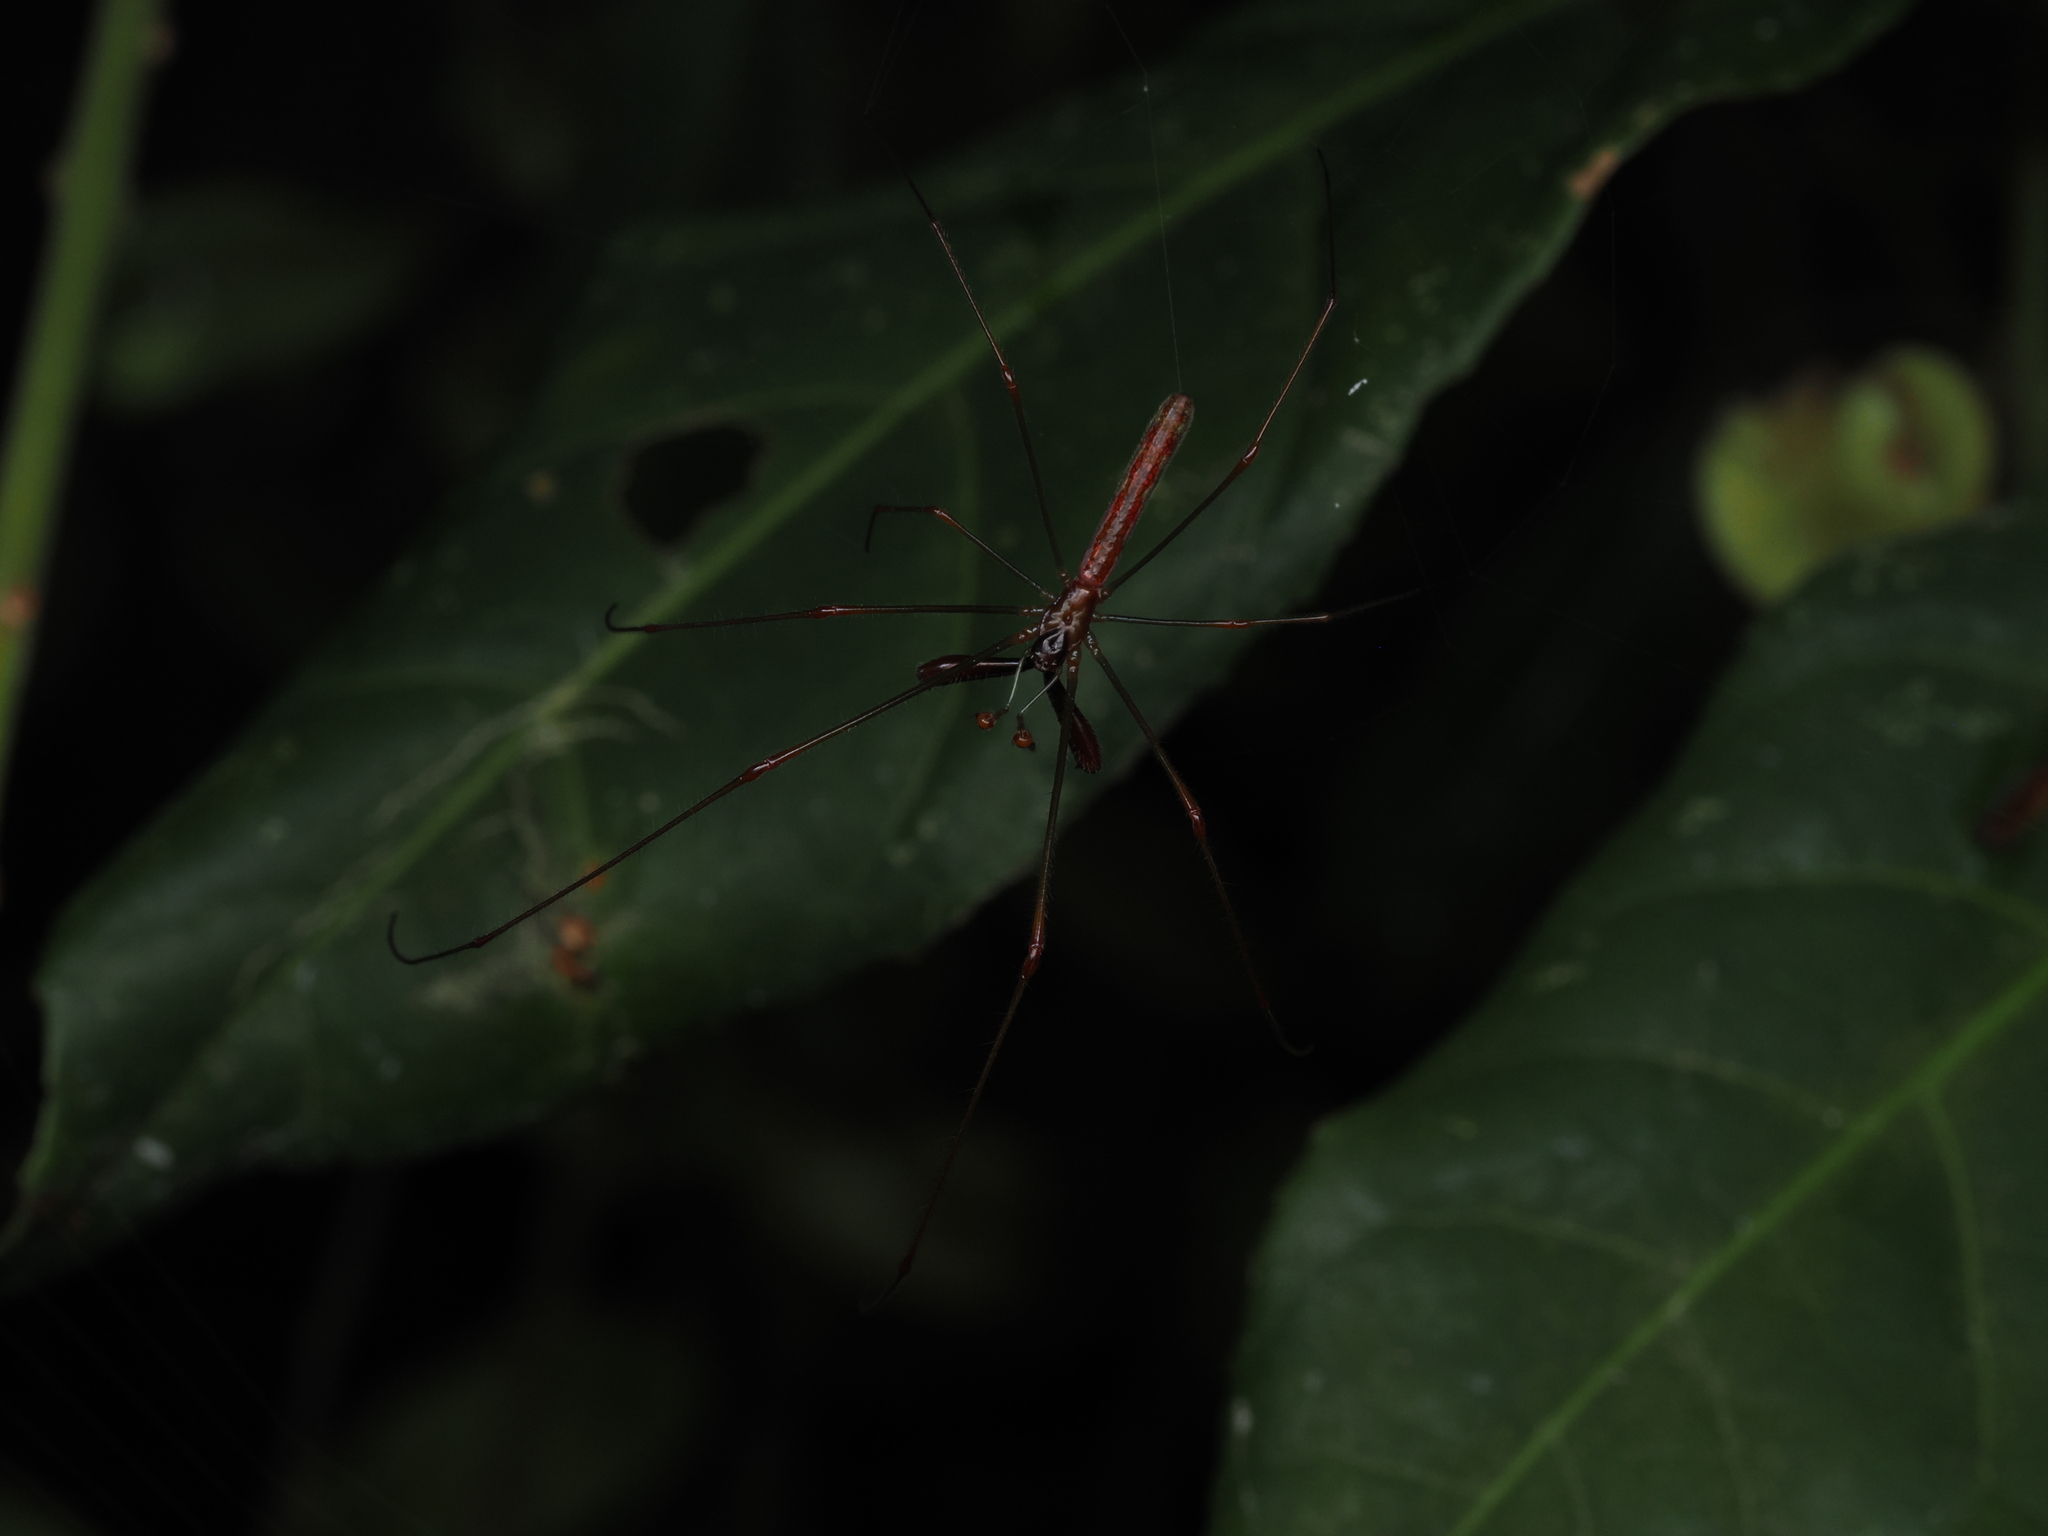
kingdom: Animalia
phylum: Arthropoda
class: Arachnida
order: Araneae
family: Tetragnathidae
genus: Tetragnatha
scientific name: Tetragnatha hasselti
